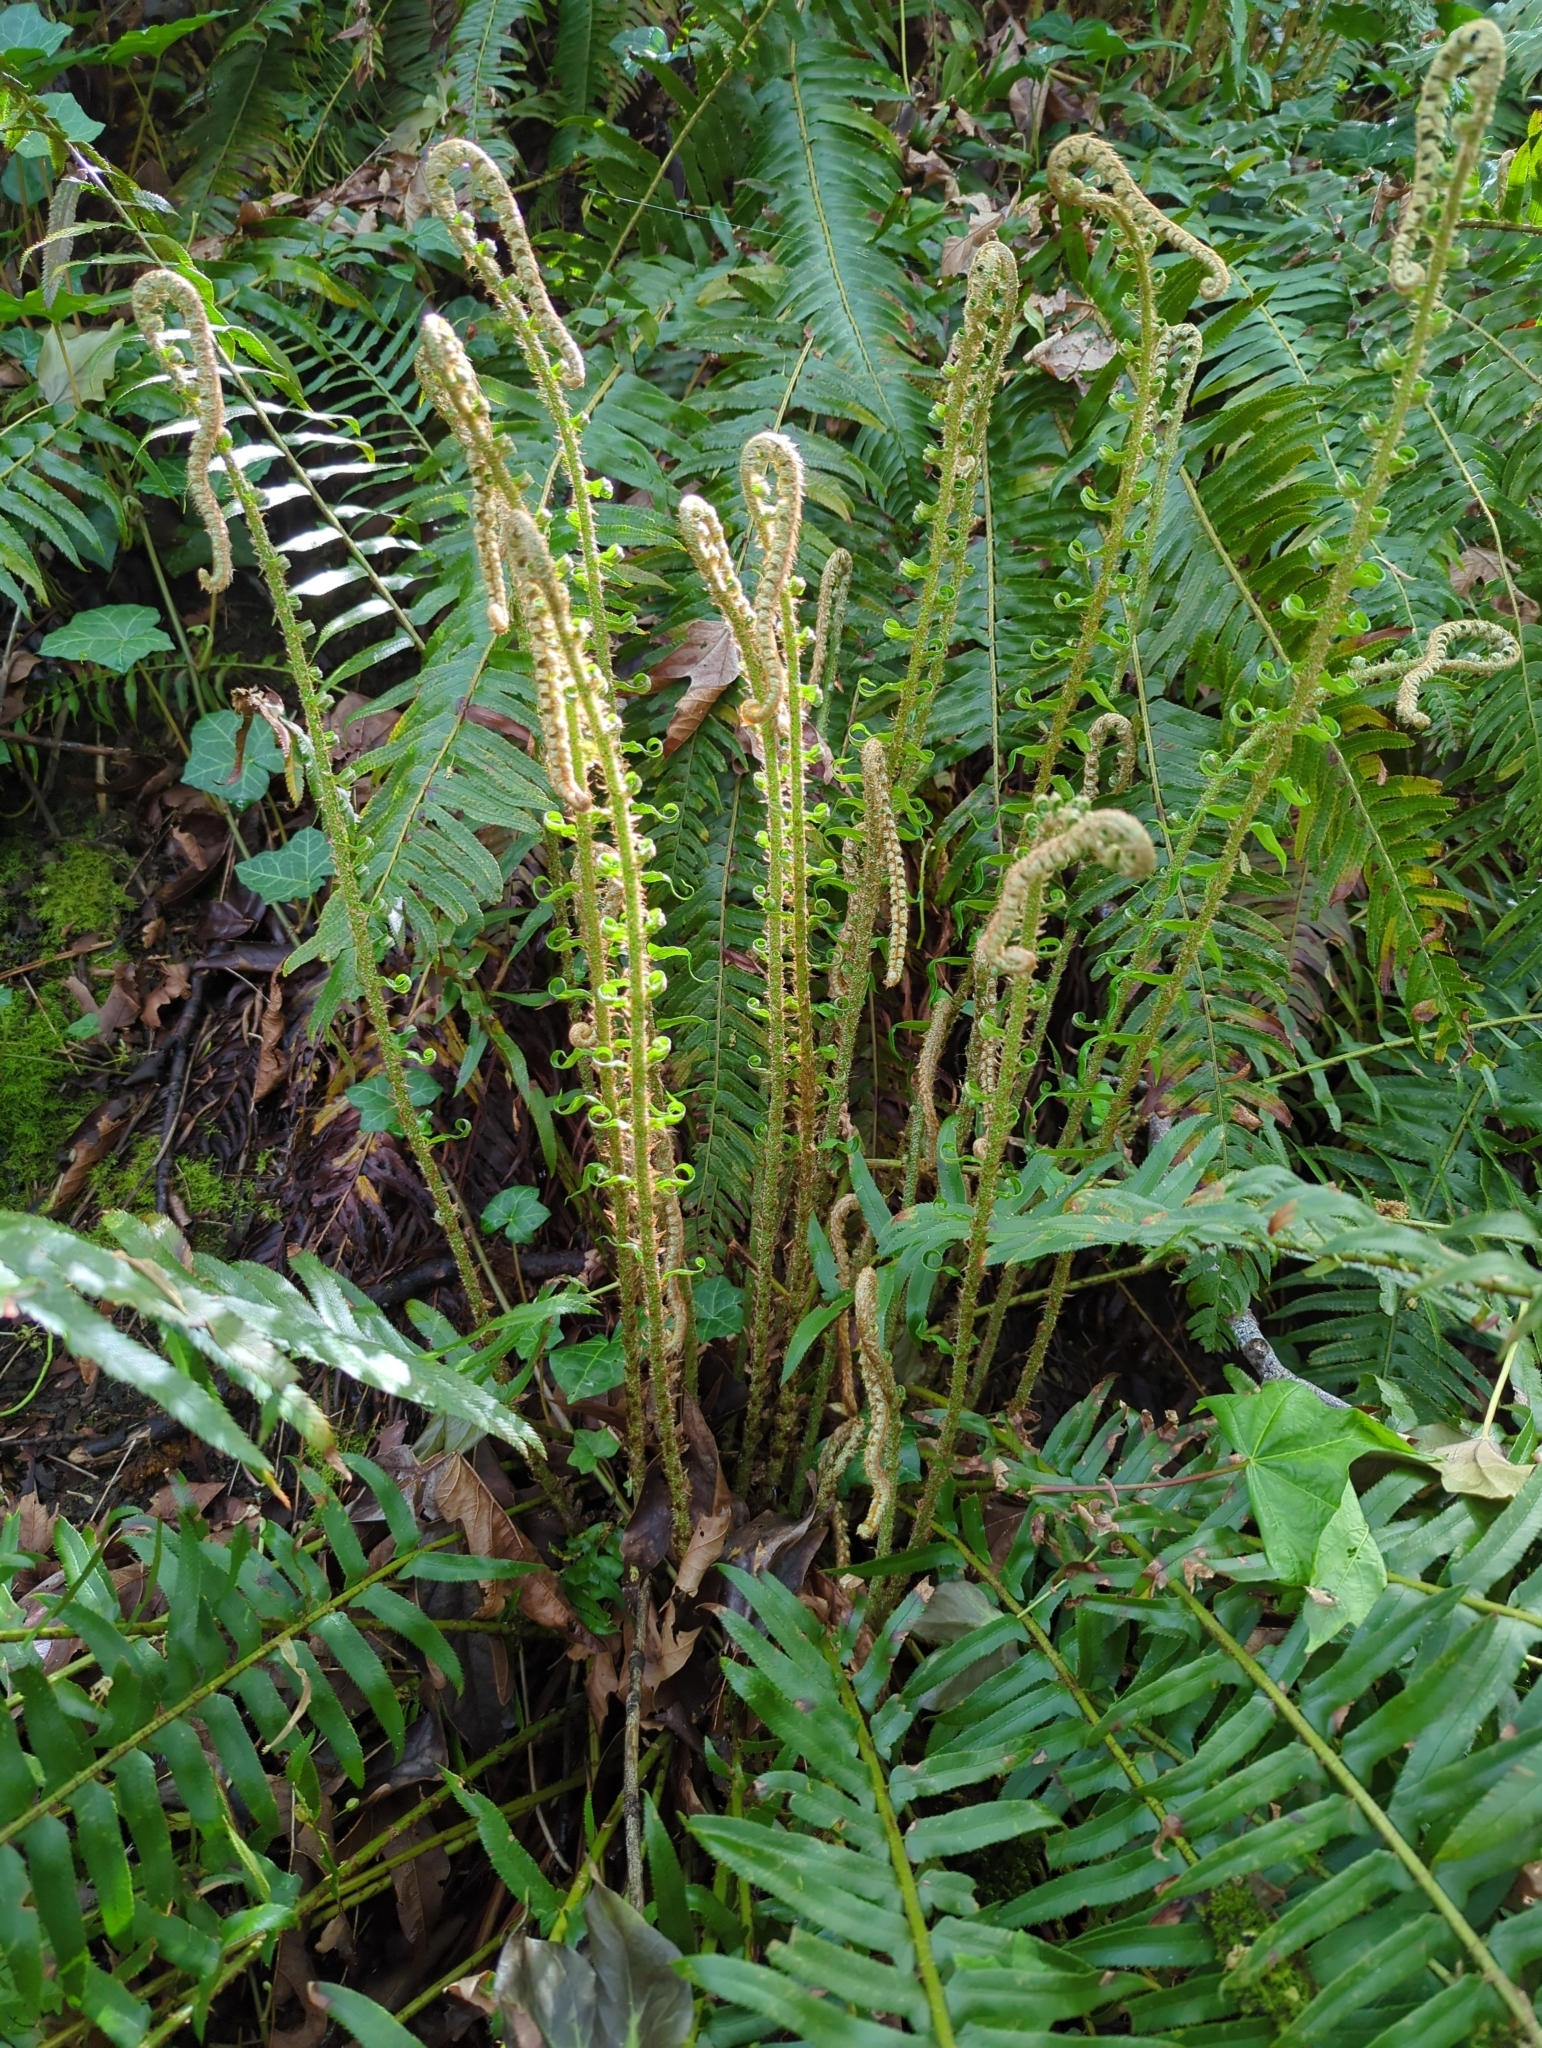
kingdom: Plantae
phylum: Tracheophyta
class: Polypodiopsida
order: Polypodiales
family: Dryopteridaceae
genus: Polystichum
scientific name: Polystichum munitum
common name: Western sword-fern
